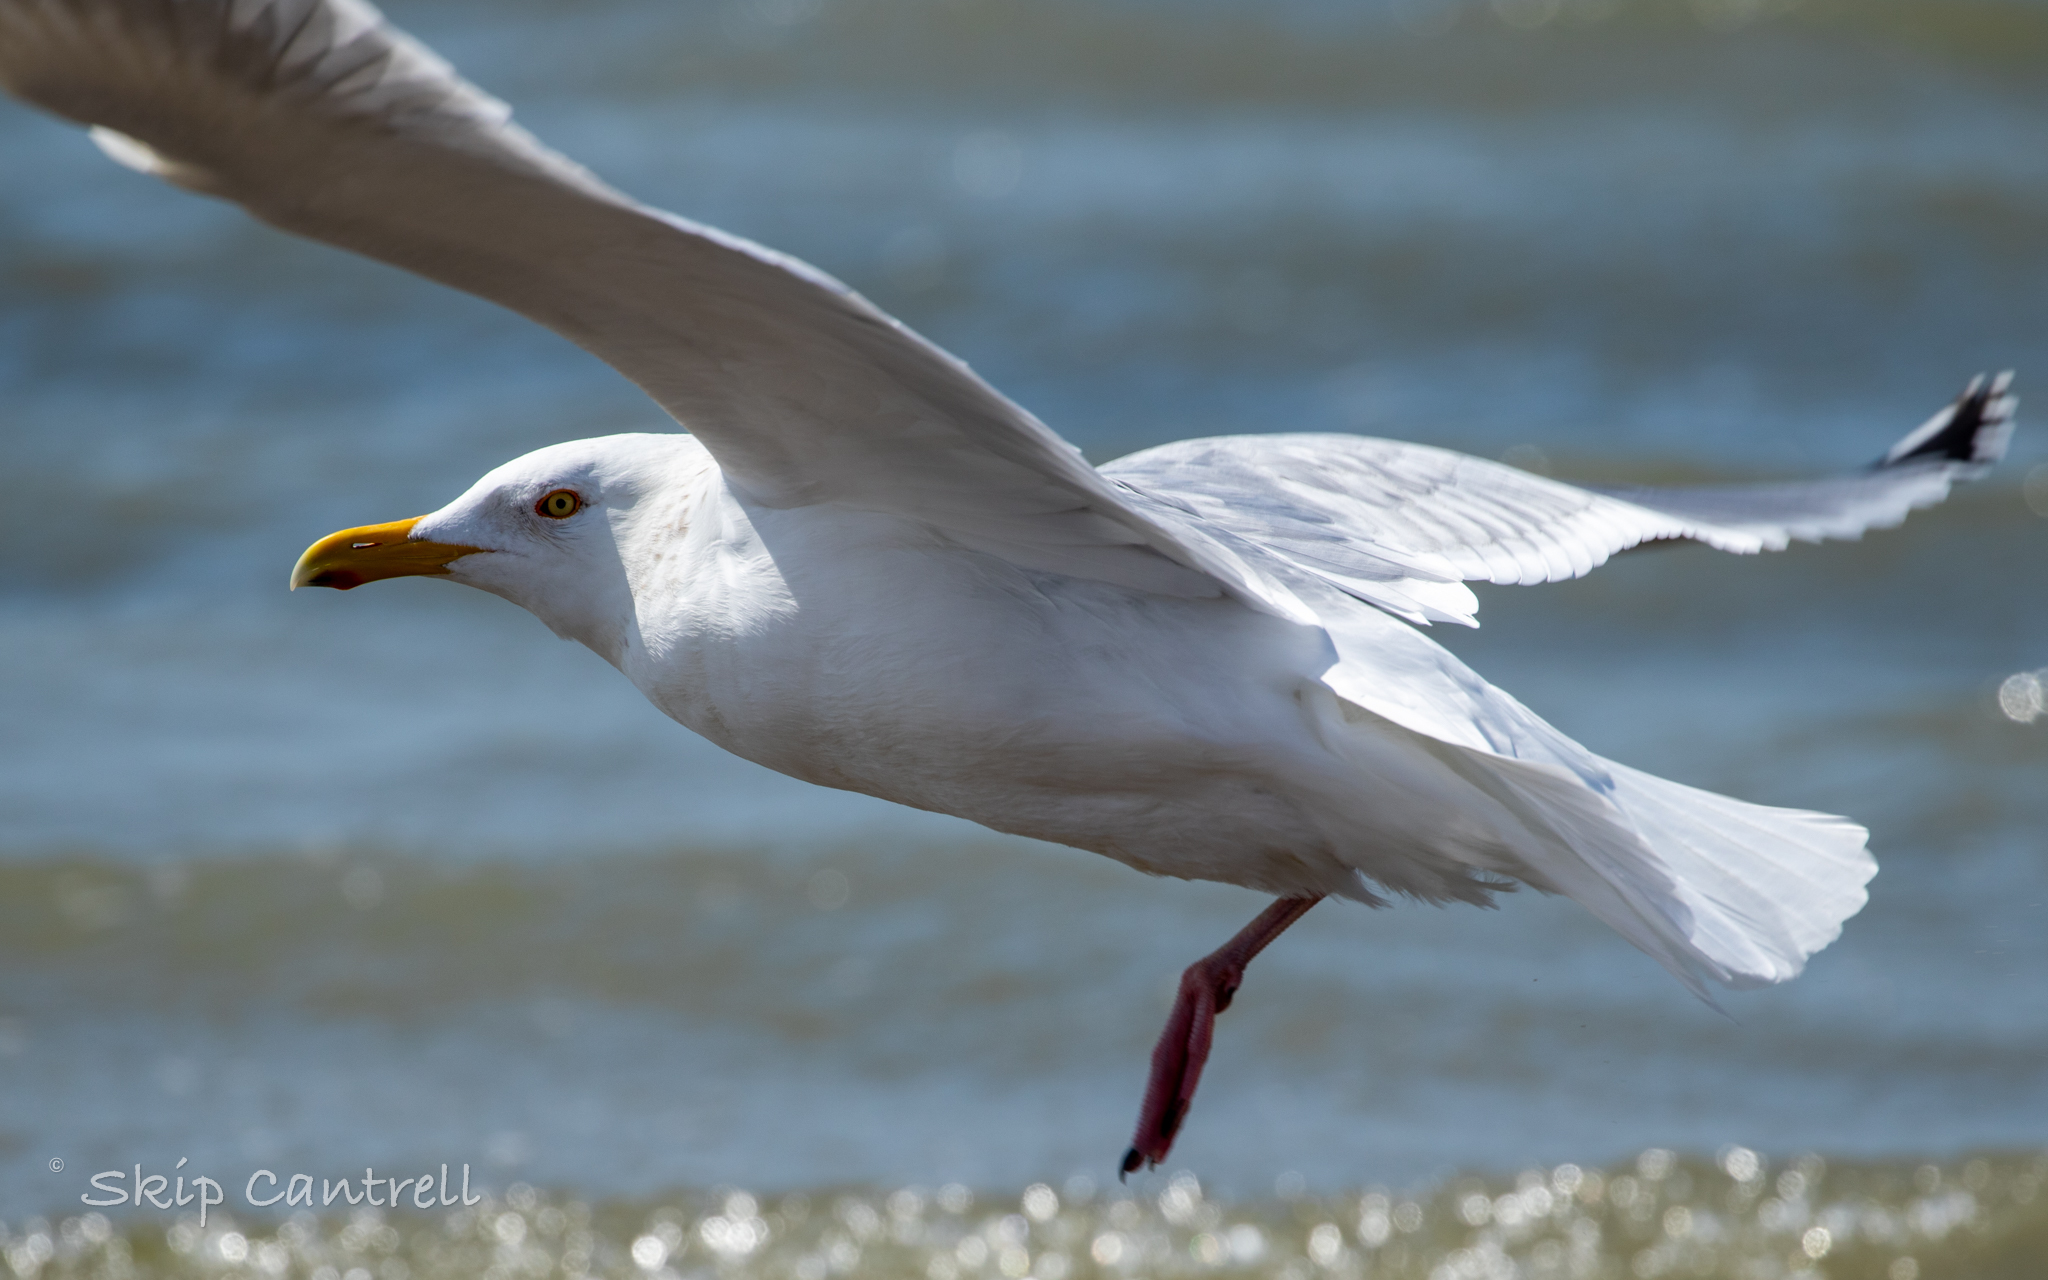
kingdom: Animalia
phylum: Chordata
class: Aves
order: Charadriiformes
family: Laridae
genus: Larus
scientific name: Larus argentatus
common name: Herring gull
